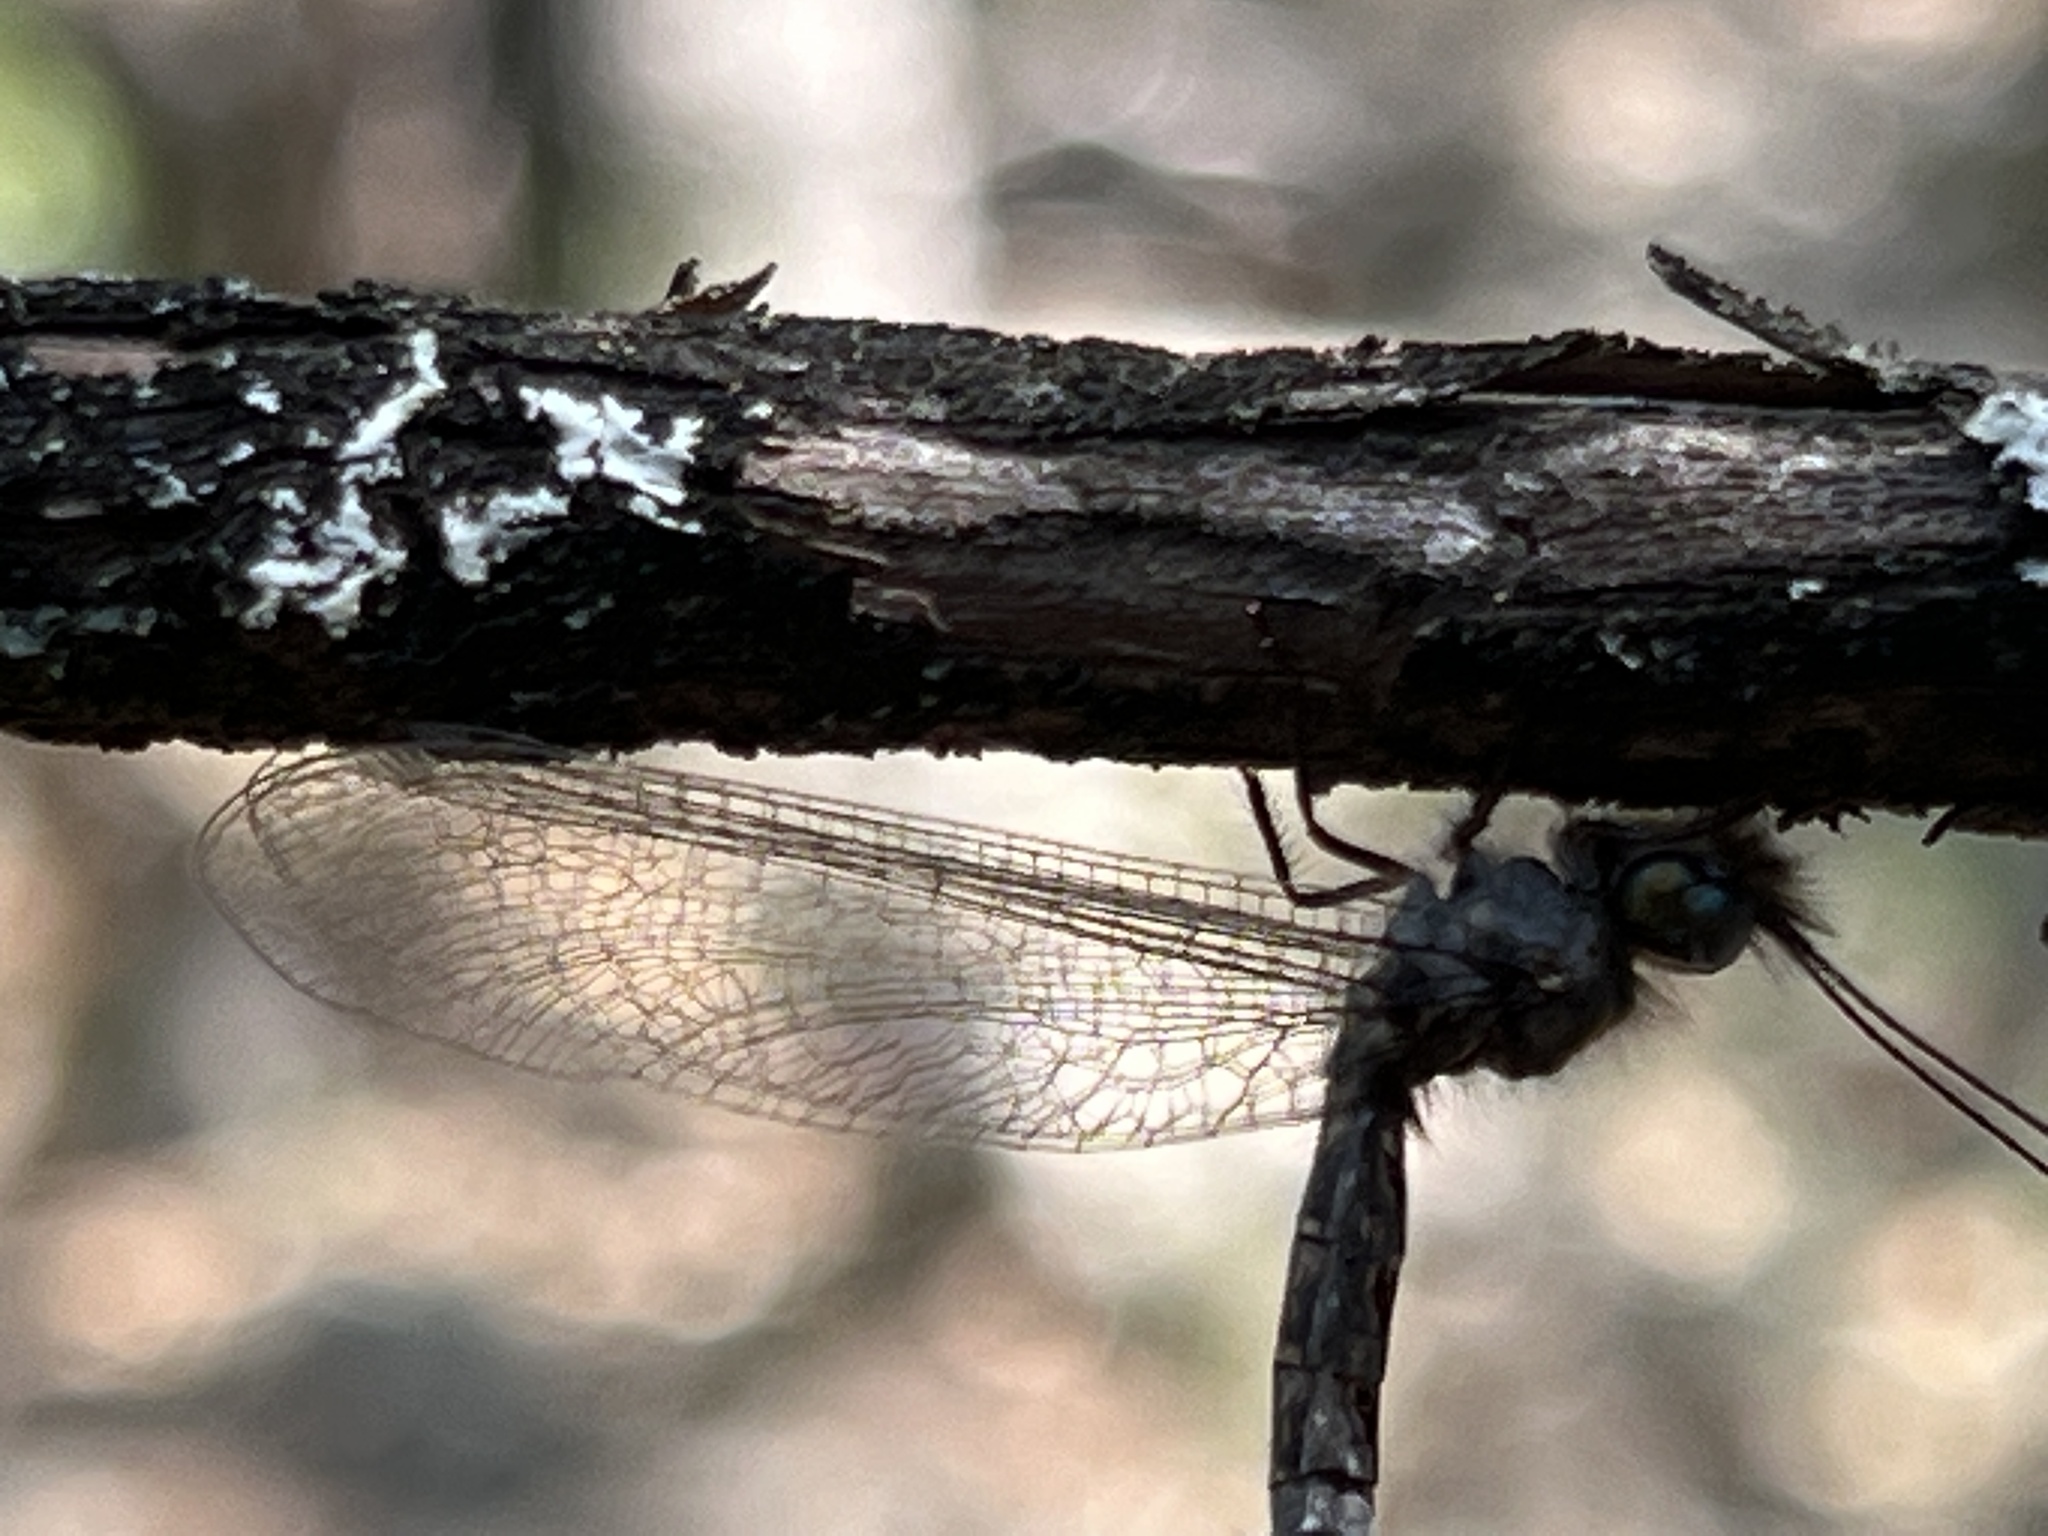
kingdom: Animalia
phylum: Arthropoda
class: Insecta
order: Neuroptera
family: Ascalaphidae
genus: Ululodes
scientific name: Ululodes floridanus
